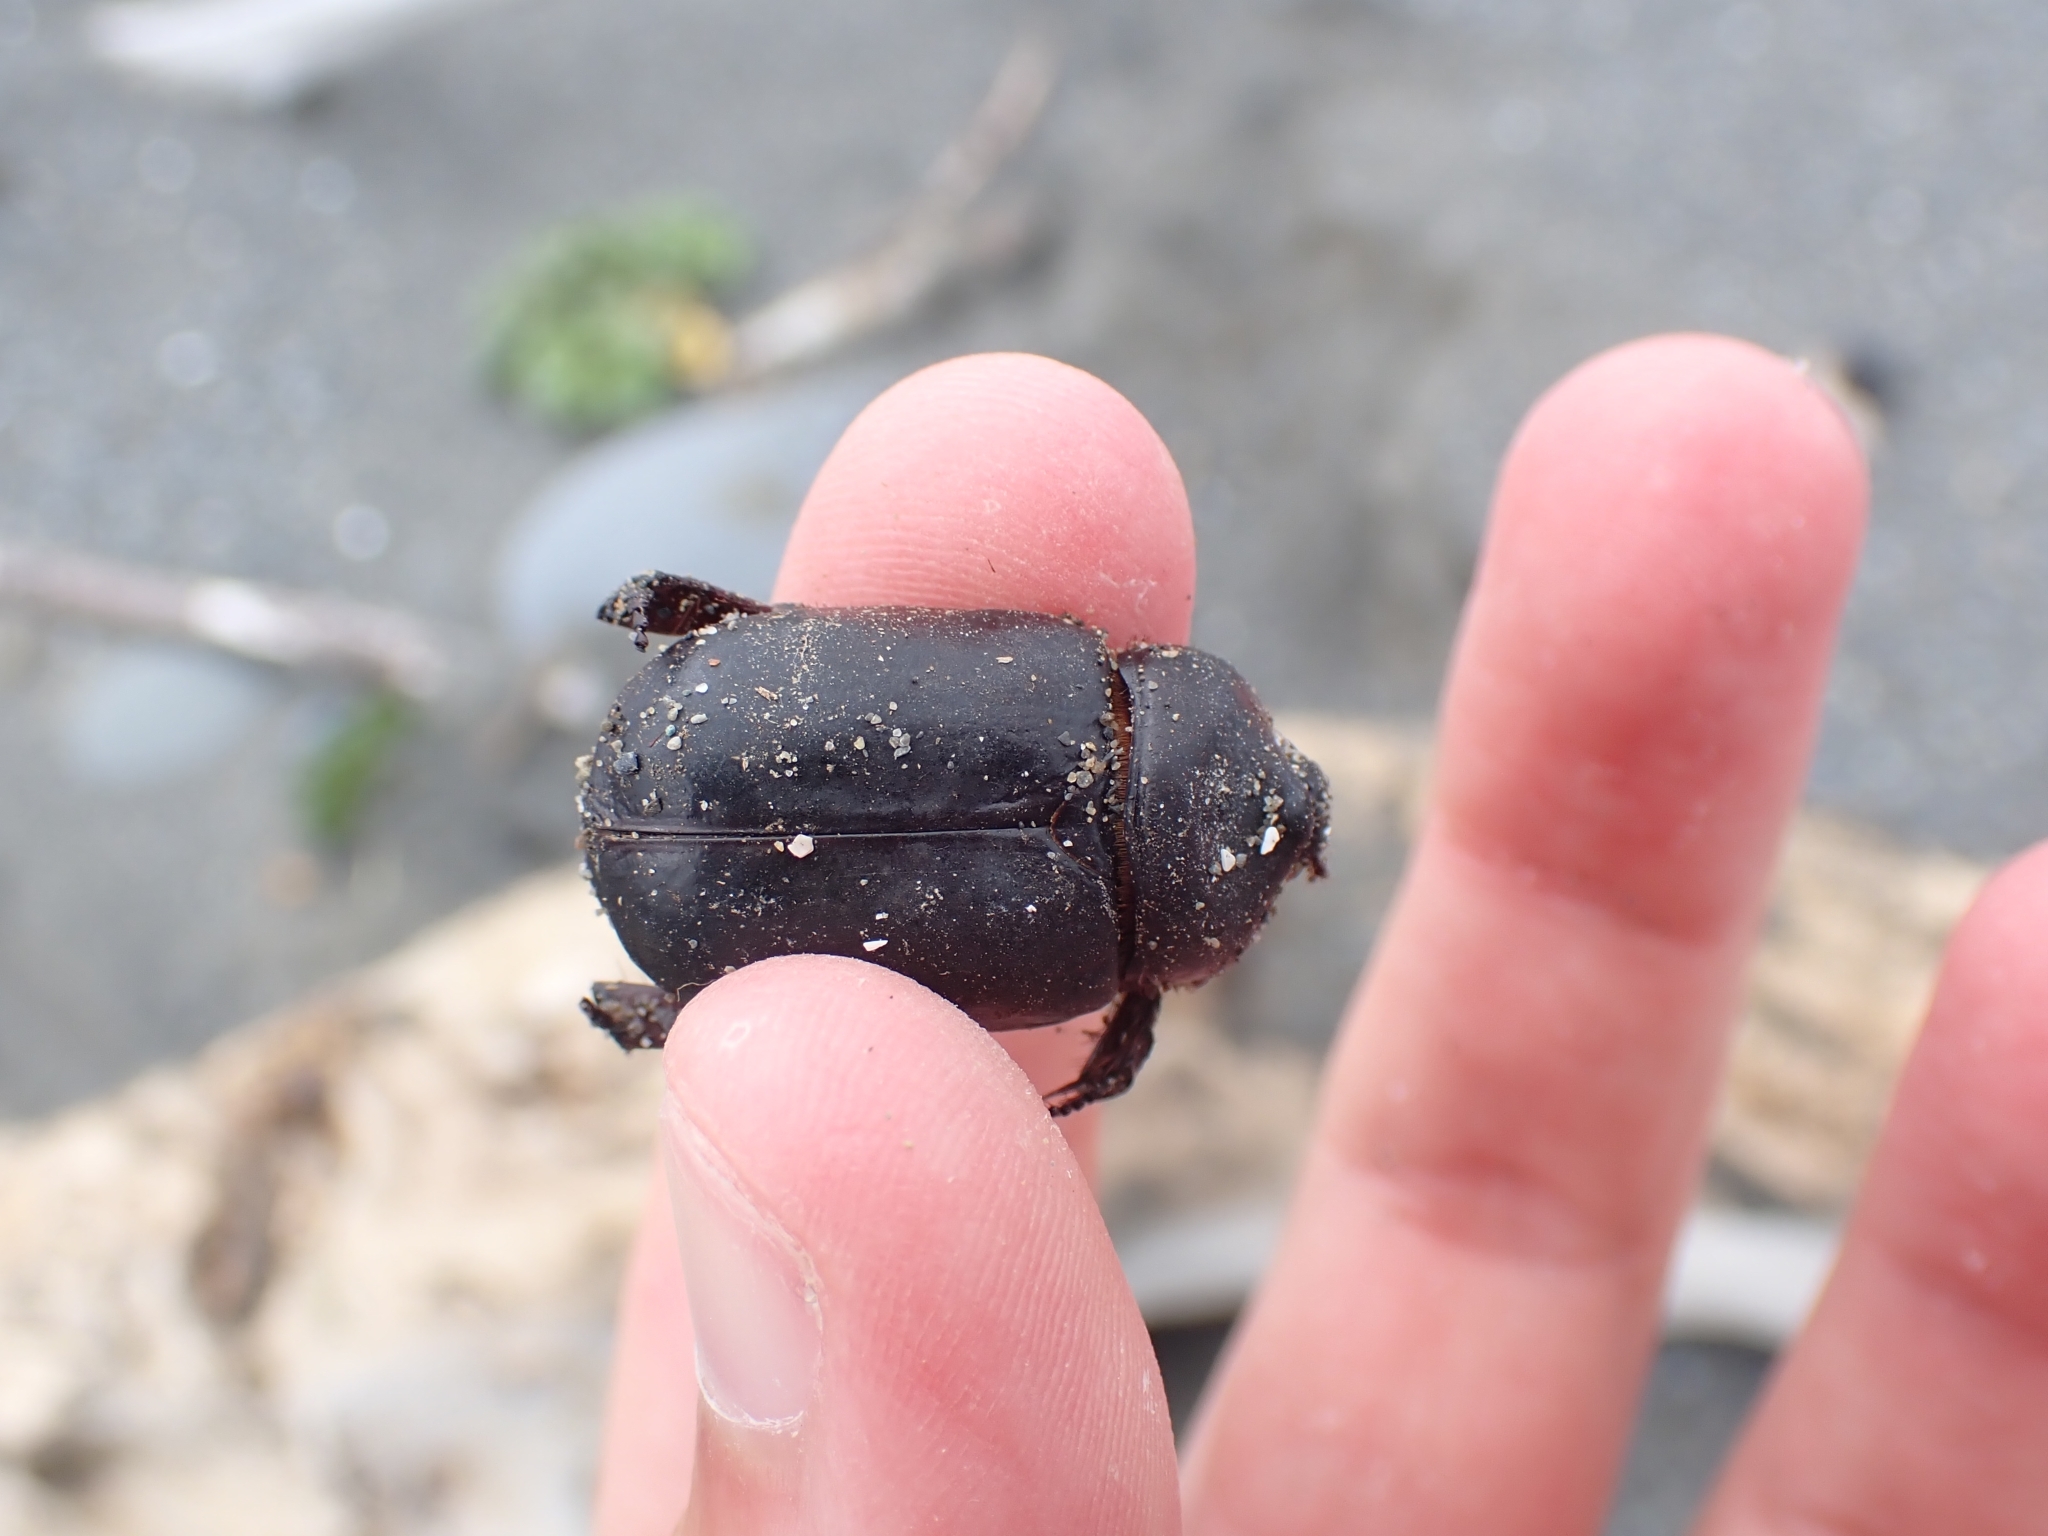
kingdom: Animalia
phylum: Arthropoda
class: Insecta
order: Coleoptera
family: Scarabaeidae
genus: Pericoptus
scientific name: Pericoptus truncatus
